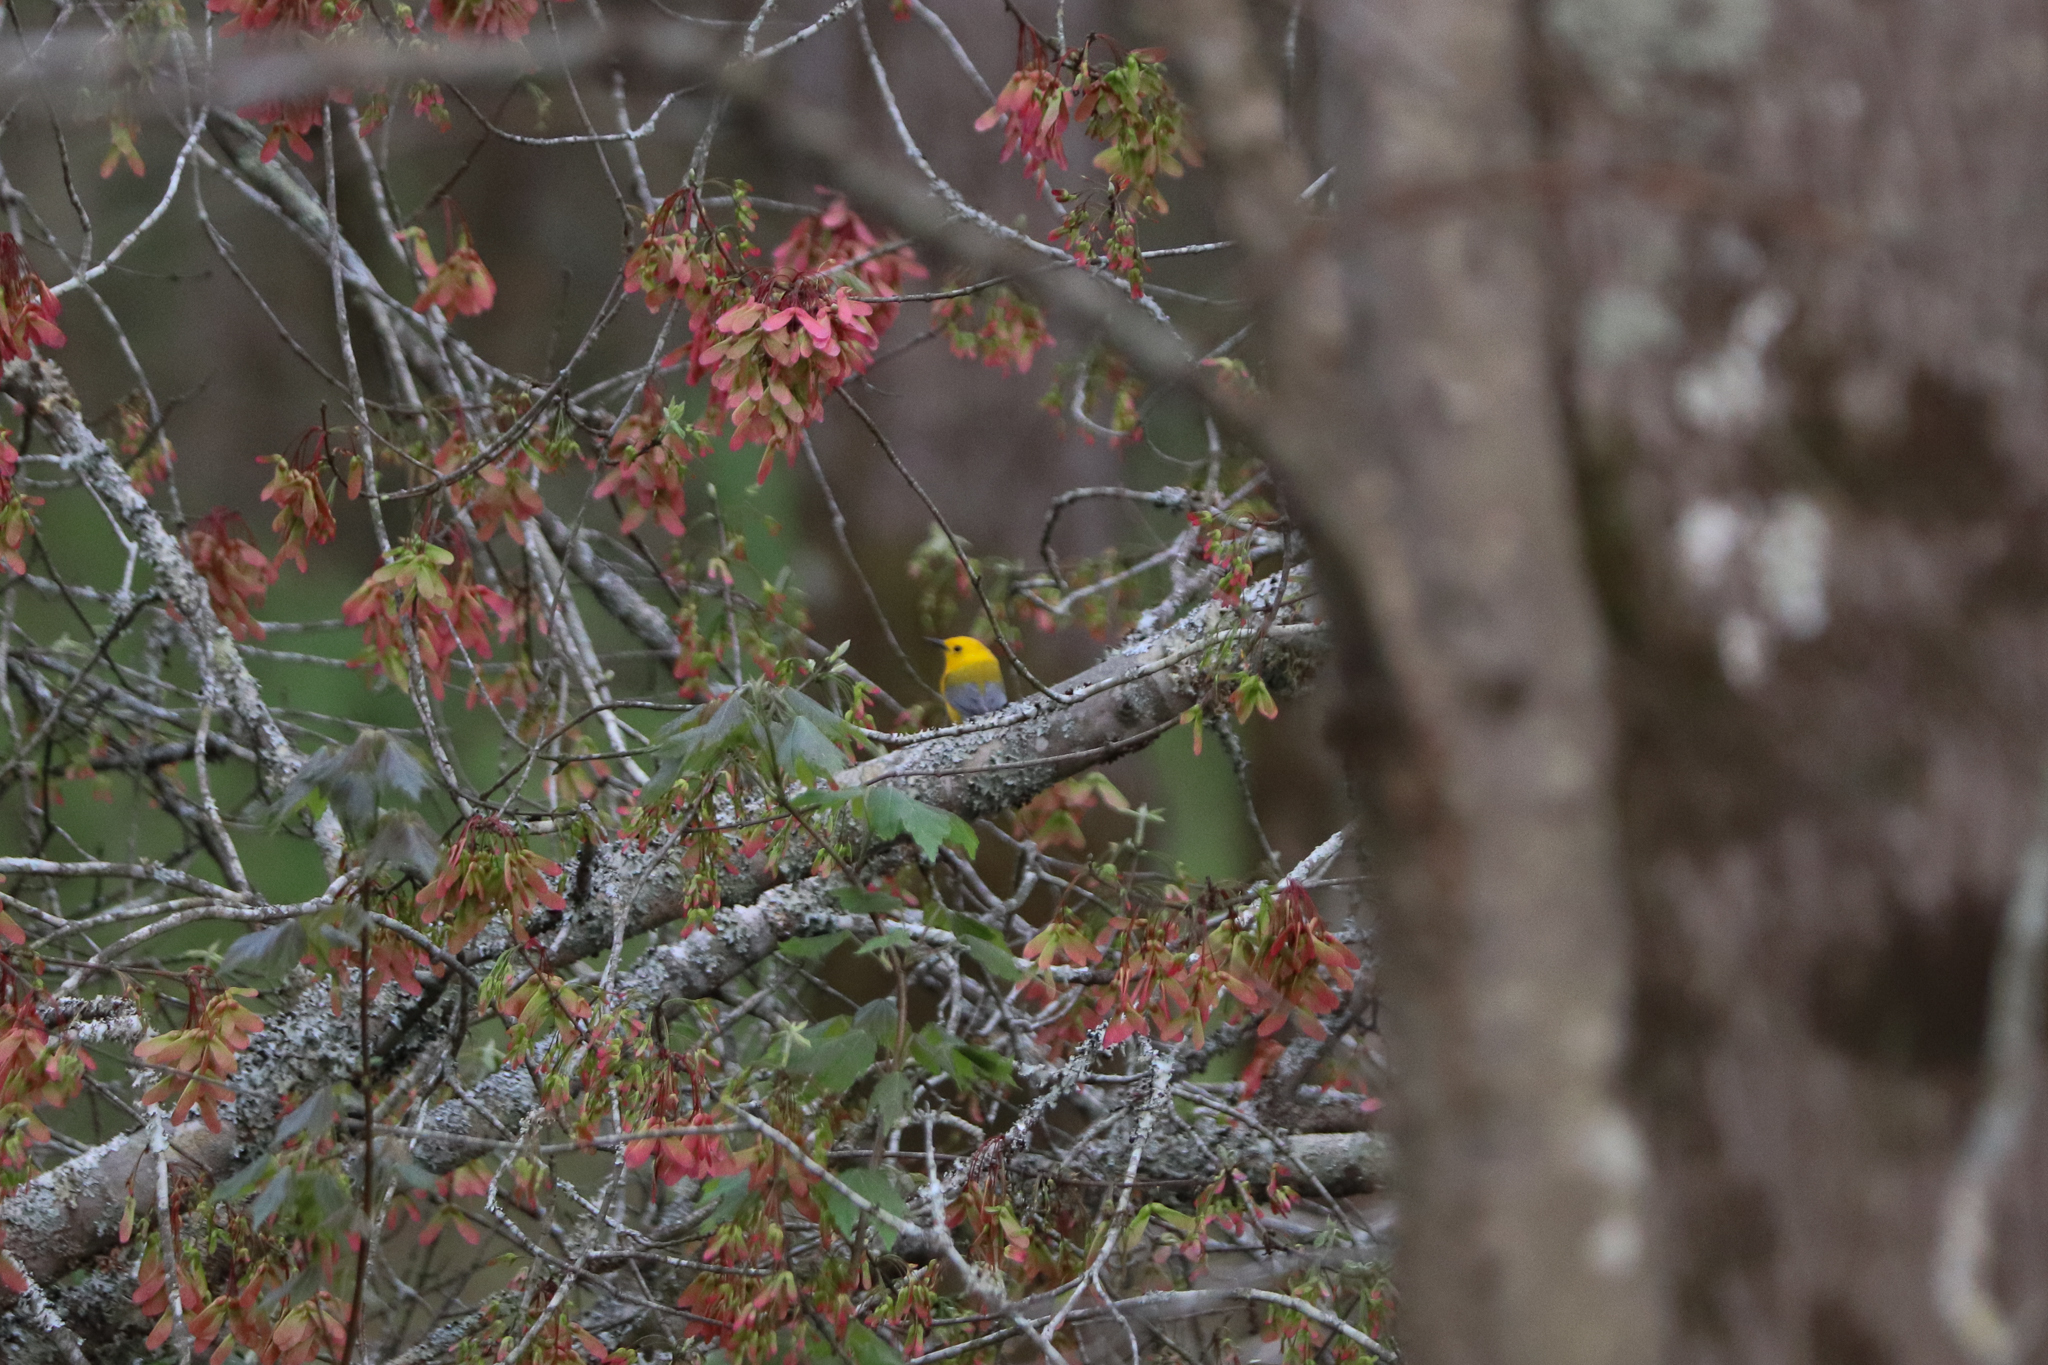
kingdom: Animalia
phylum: Chordata
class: Aves
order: Passeriformes
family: Parulidae
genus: Protonotaria
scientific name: Protonotaria citrea
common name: Prothonotary warbler
